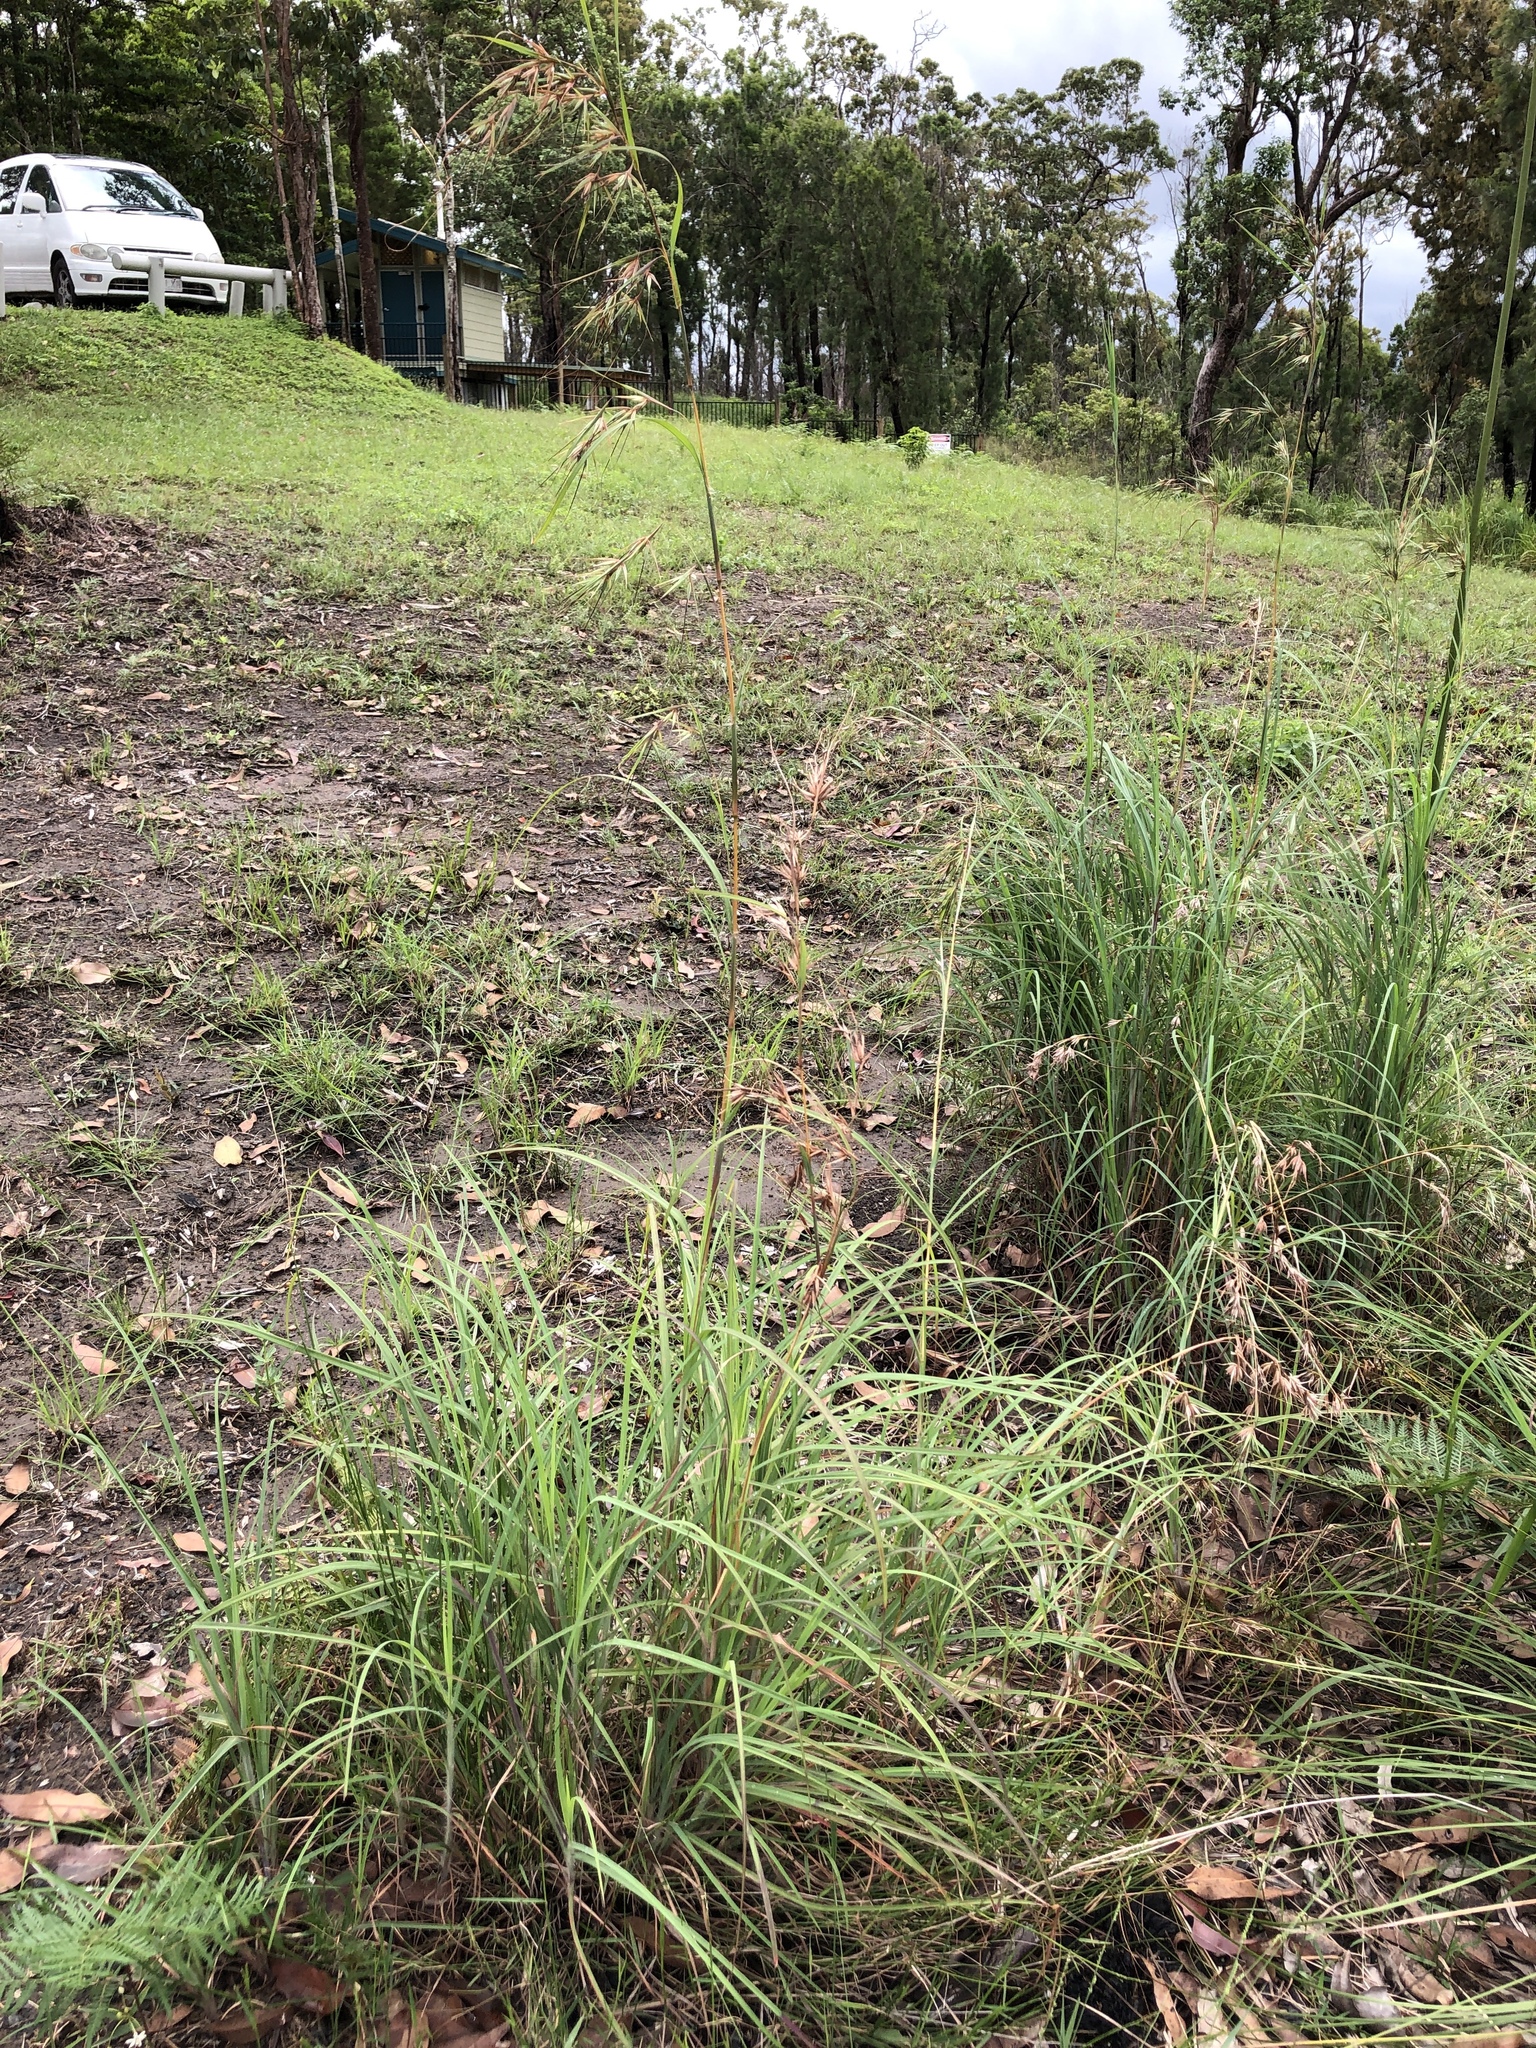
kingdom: Plantae
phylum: Tracheophyta
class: Liliopsida
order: Poales
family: Poaceae
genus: Themeda
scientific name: Themeda triandra
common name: Kangaroo grass
